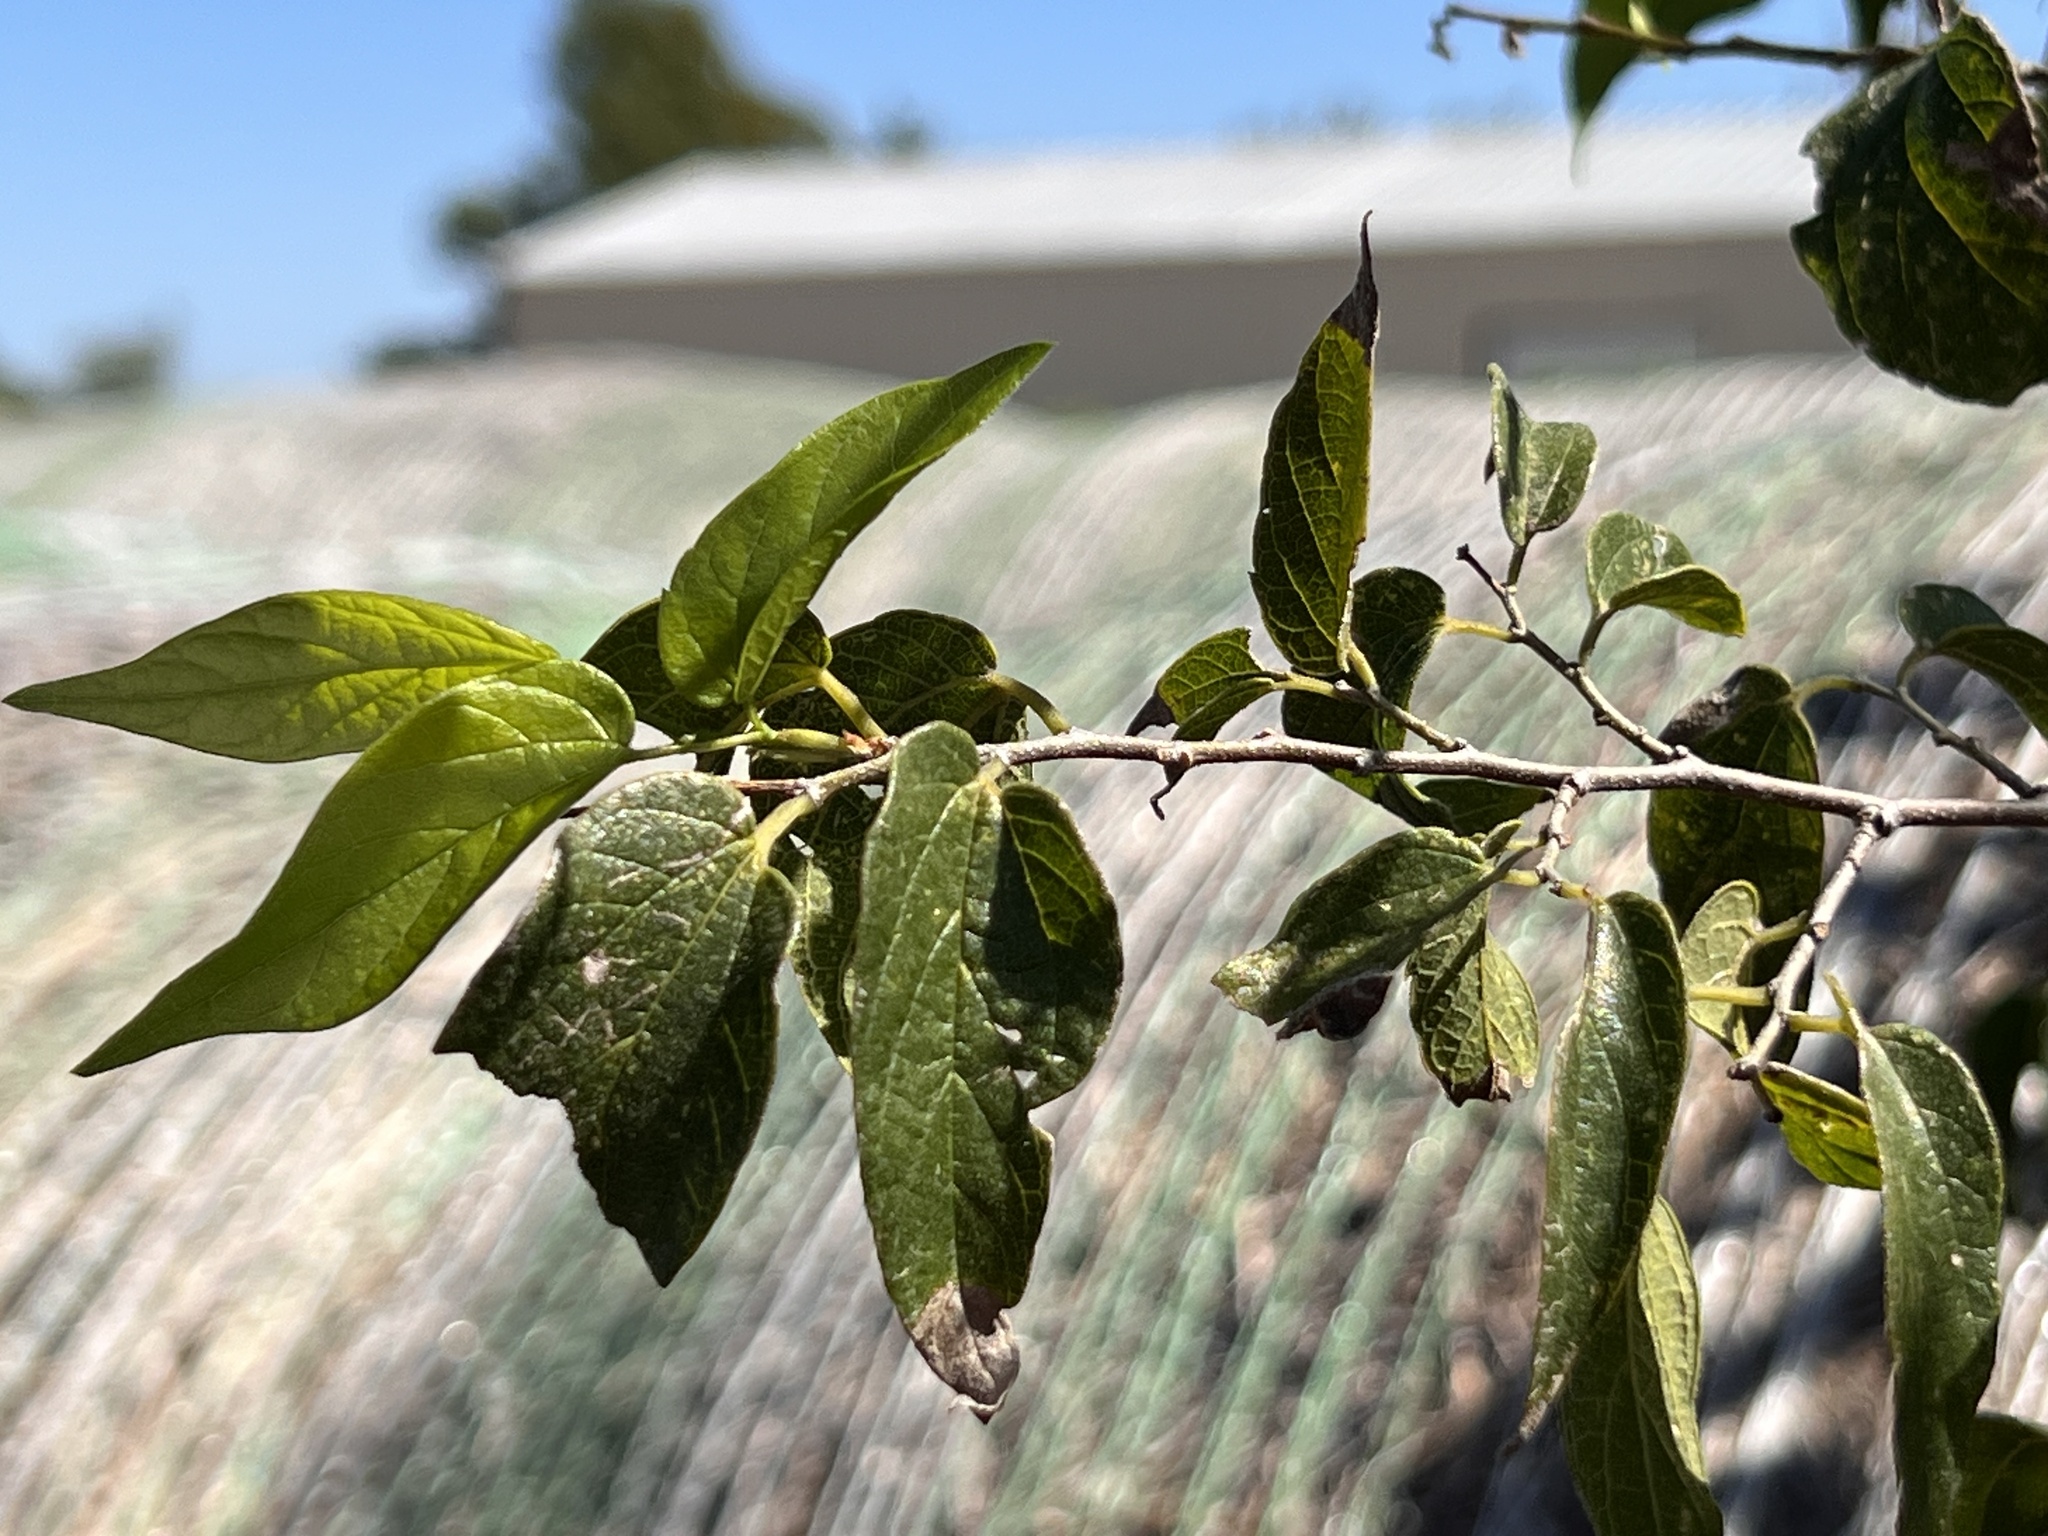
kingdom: Plantae
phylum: Tracheophyta
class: Magnoliopsida
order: Rosales
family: Cannabaceae
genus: Celtis
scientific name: Celtis laevigata
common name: Sugarberry
